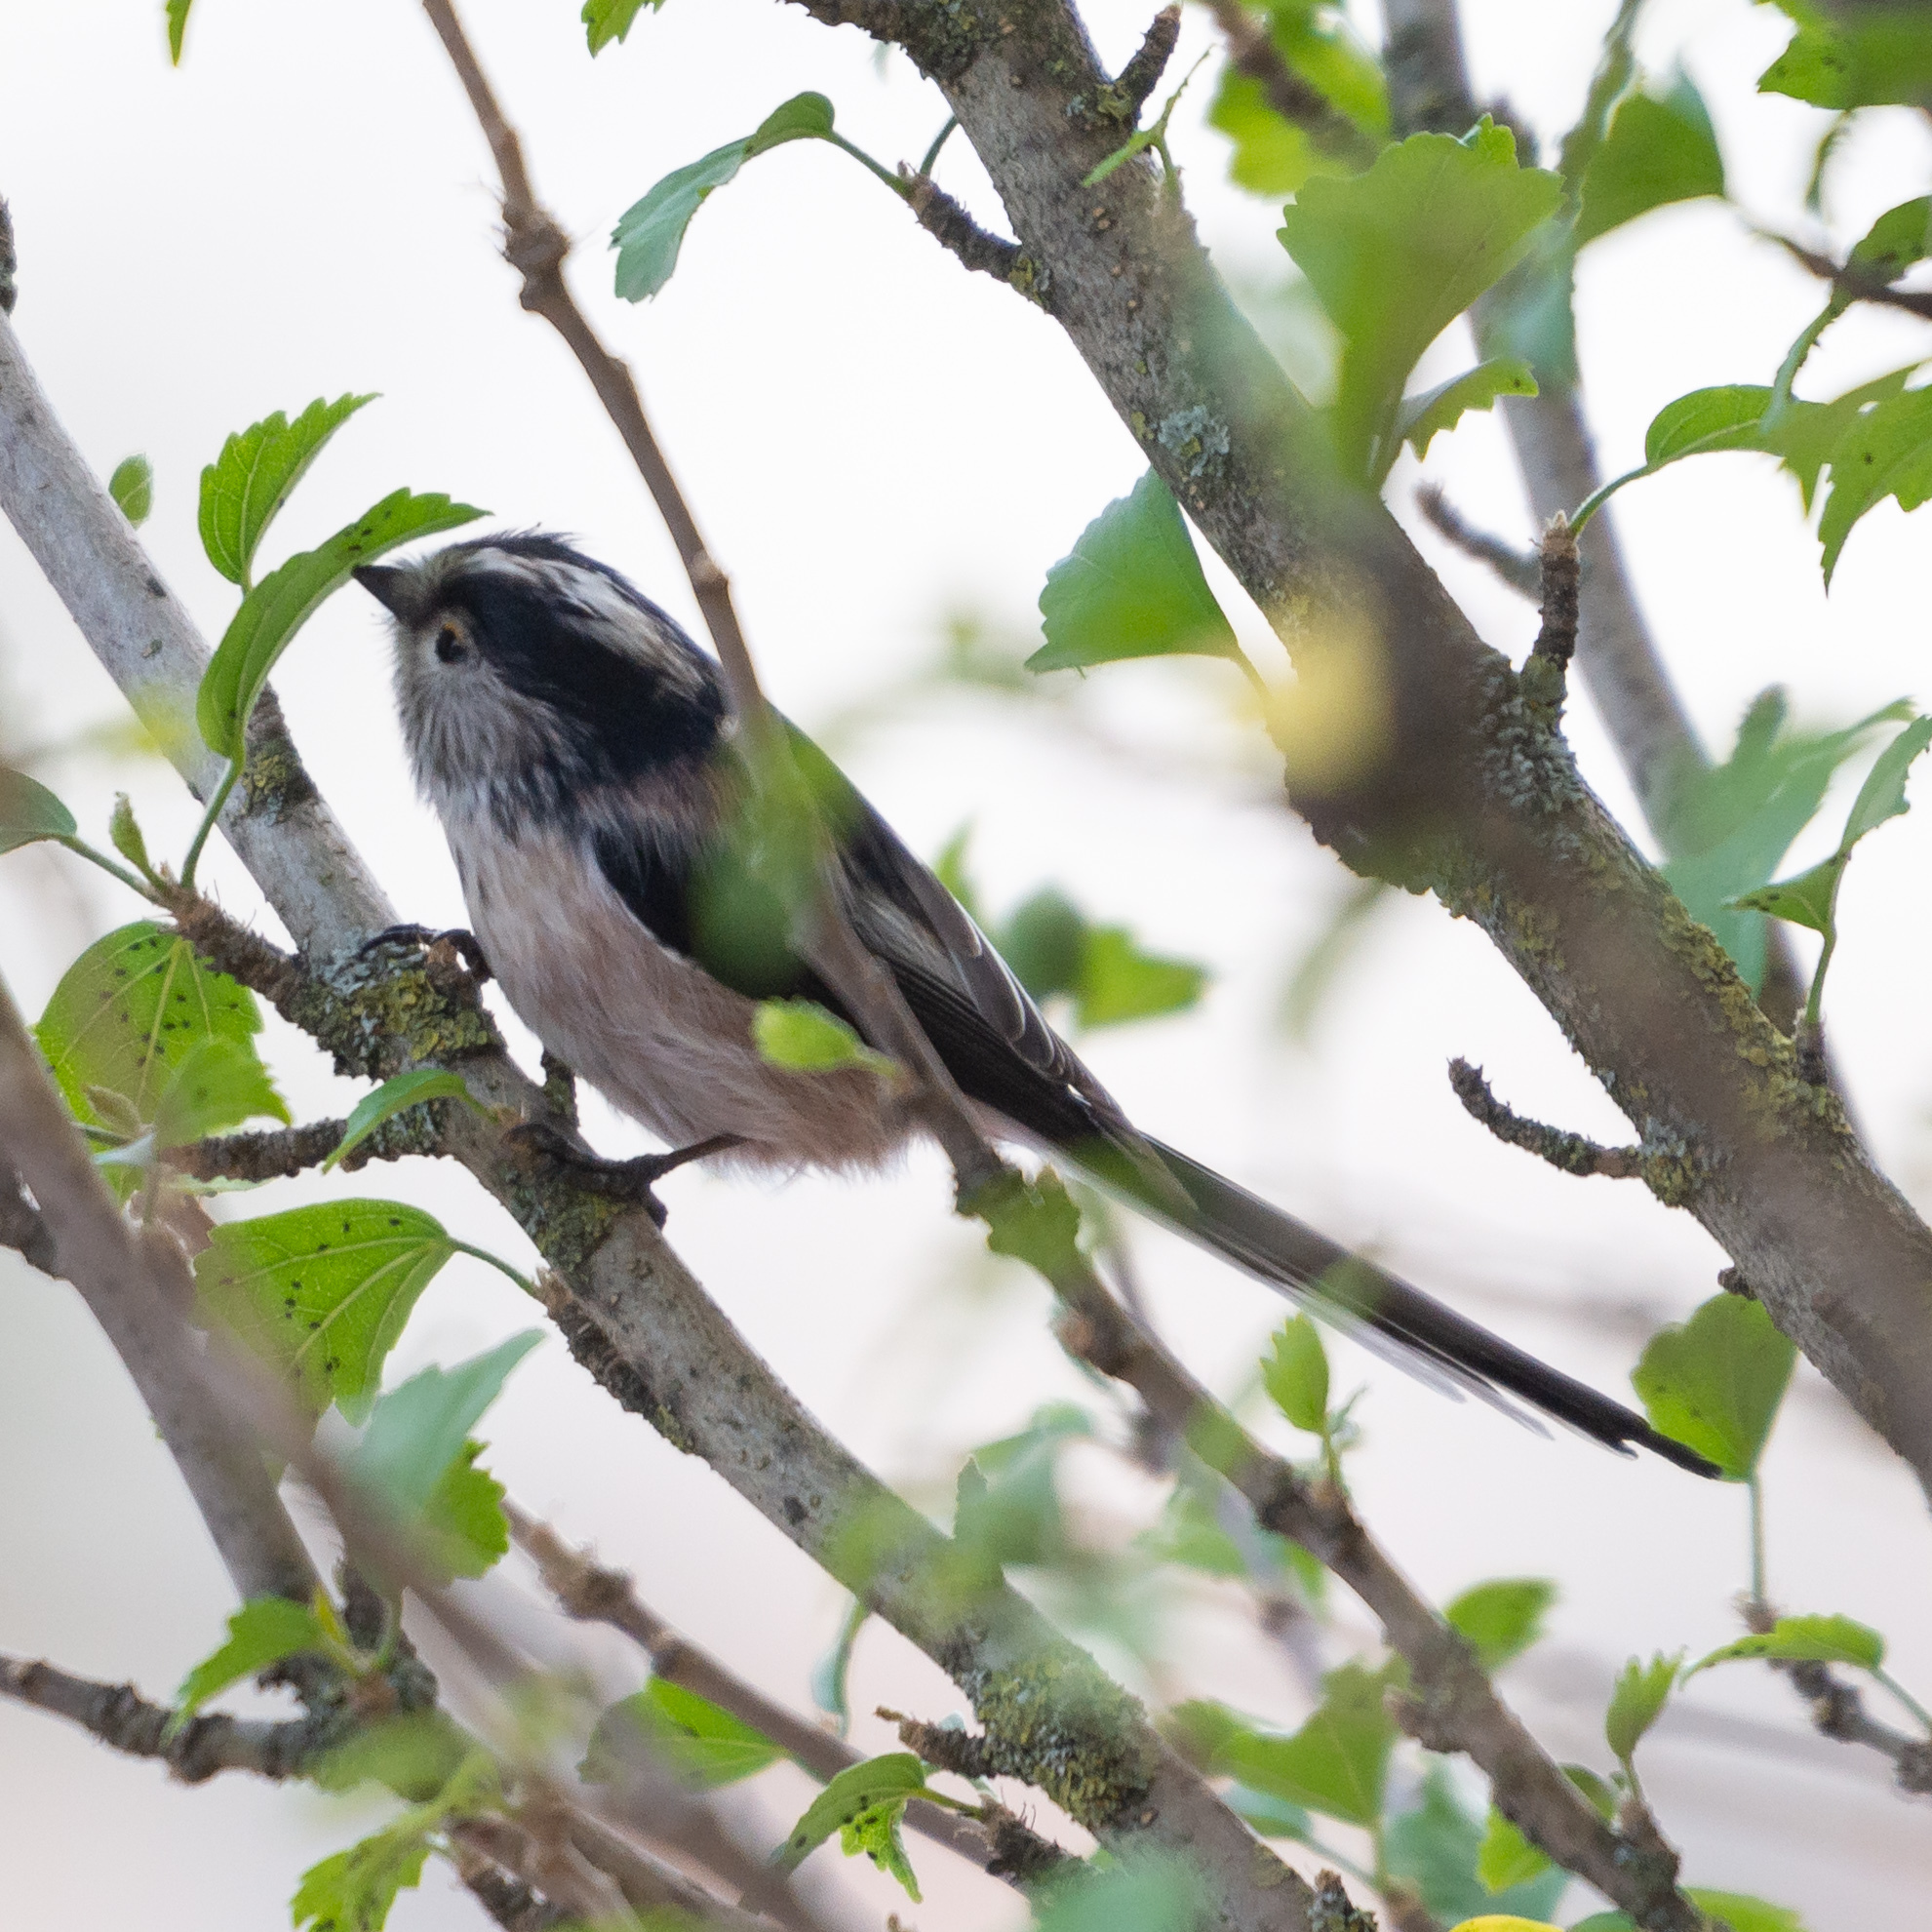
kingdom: Animalia
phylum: Chordata
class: Aves
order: Passeriformes
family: Aegithalidae
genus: Aegithalos
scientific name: Aegithalos caudatus
